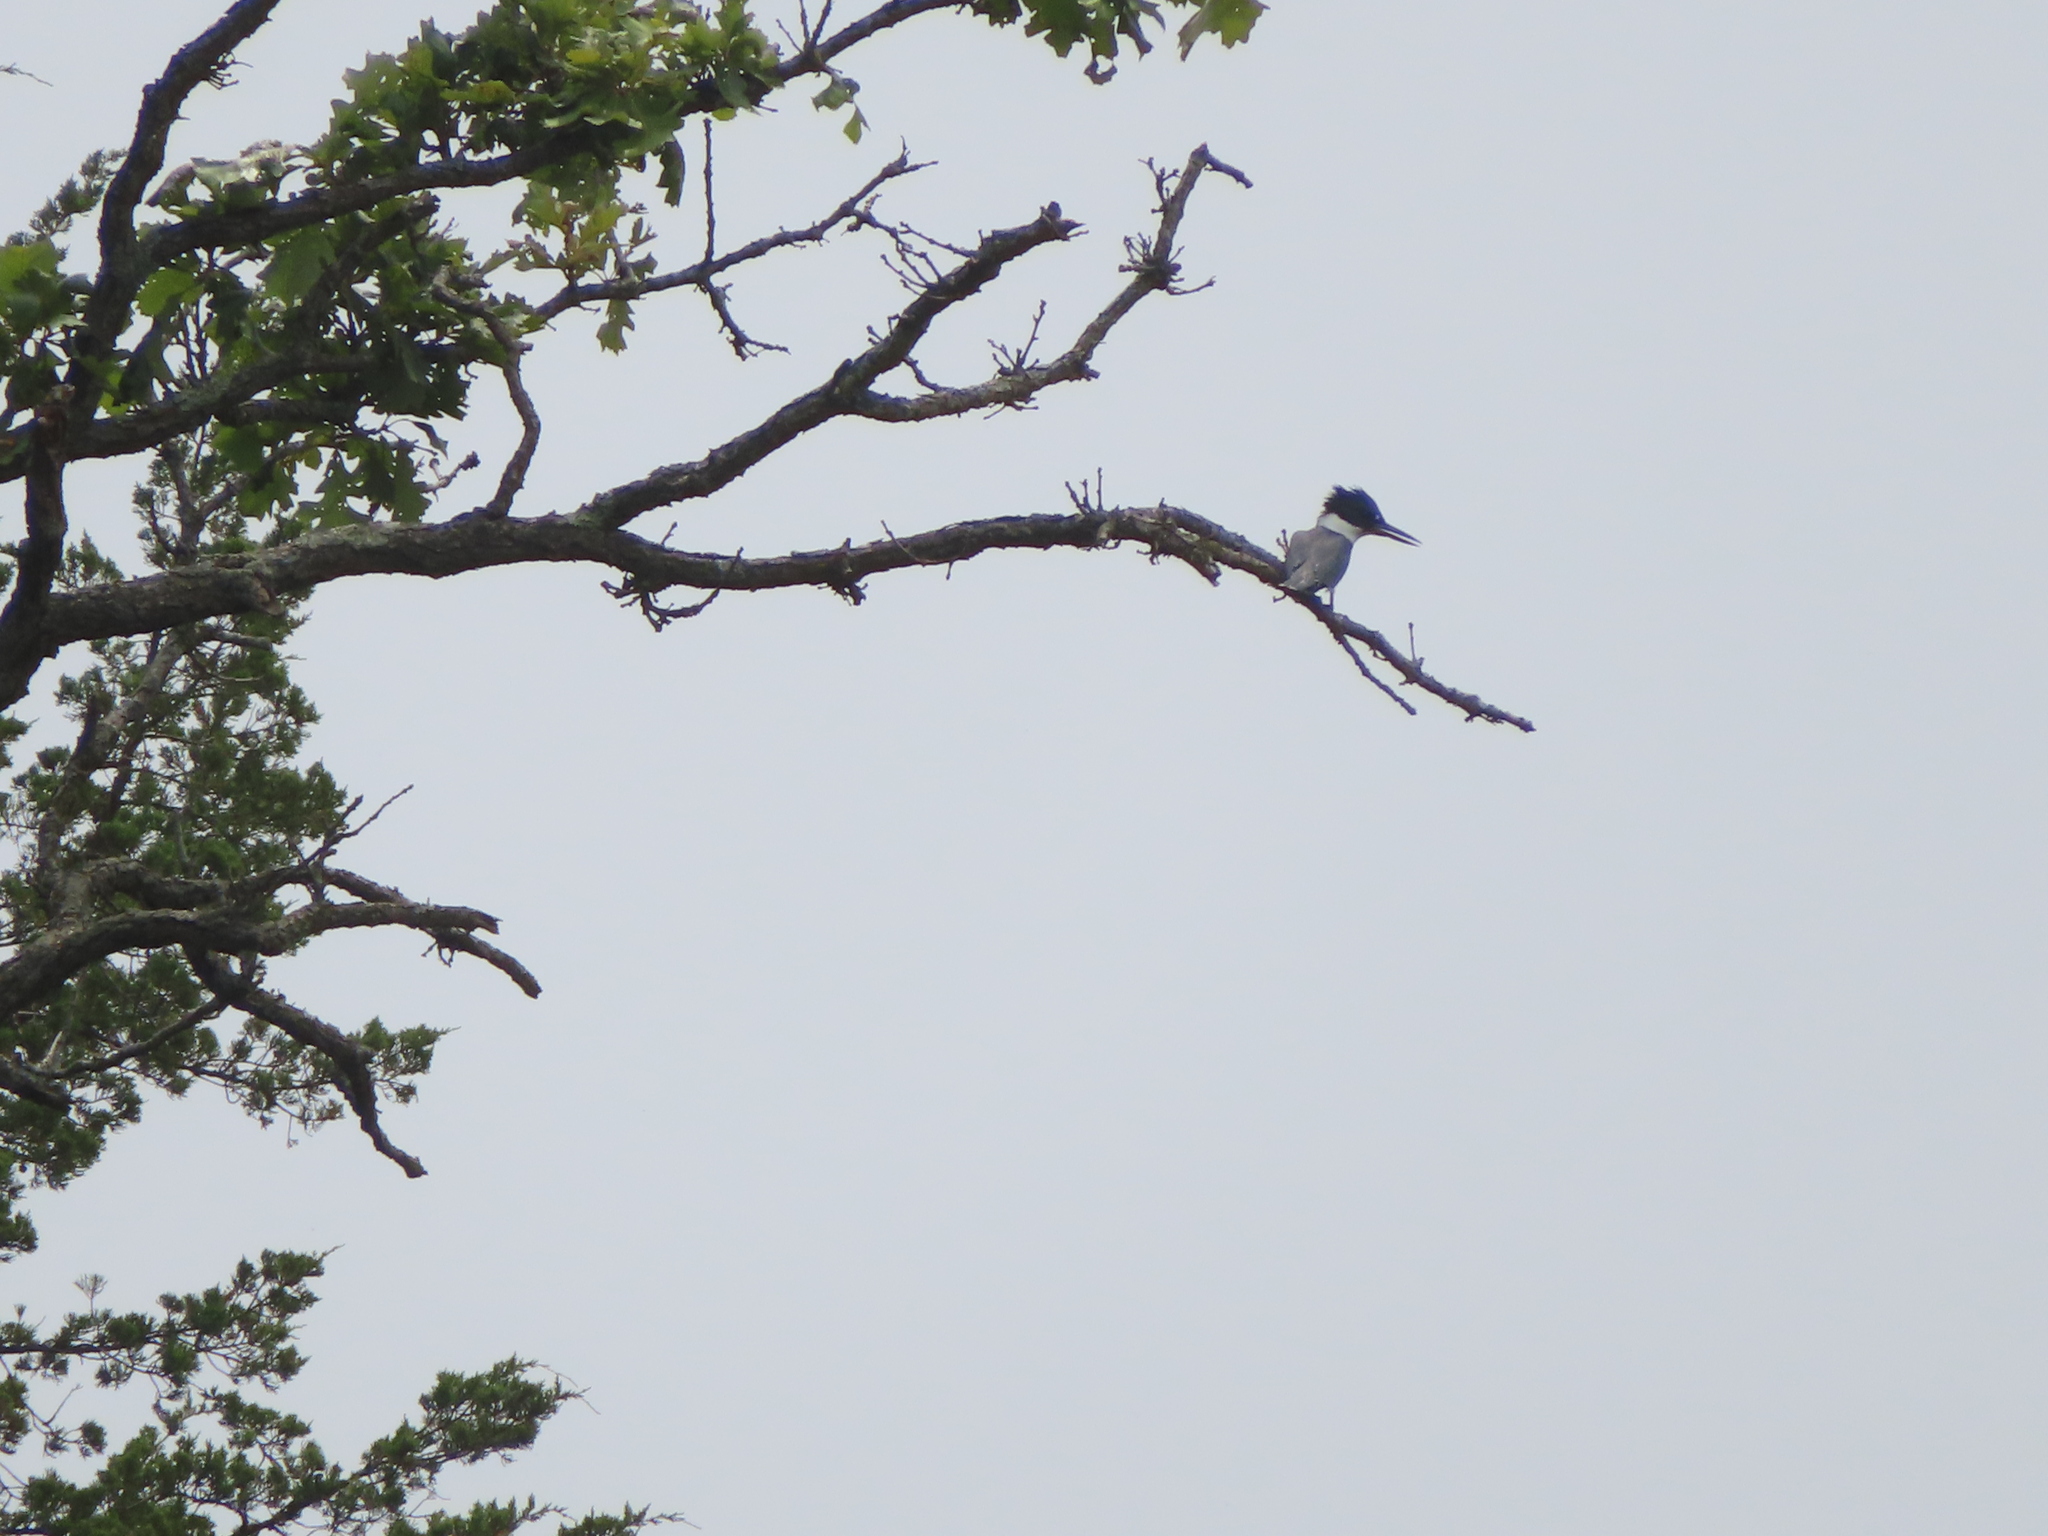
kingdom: Animalia
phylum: Chordata
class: Aves
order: Coraciiformes
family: Alcedinidae
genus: Megaceryle
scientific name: Megaceryle alcyon
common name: Belted kingfisher
